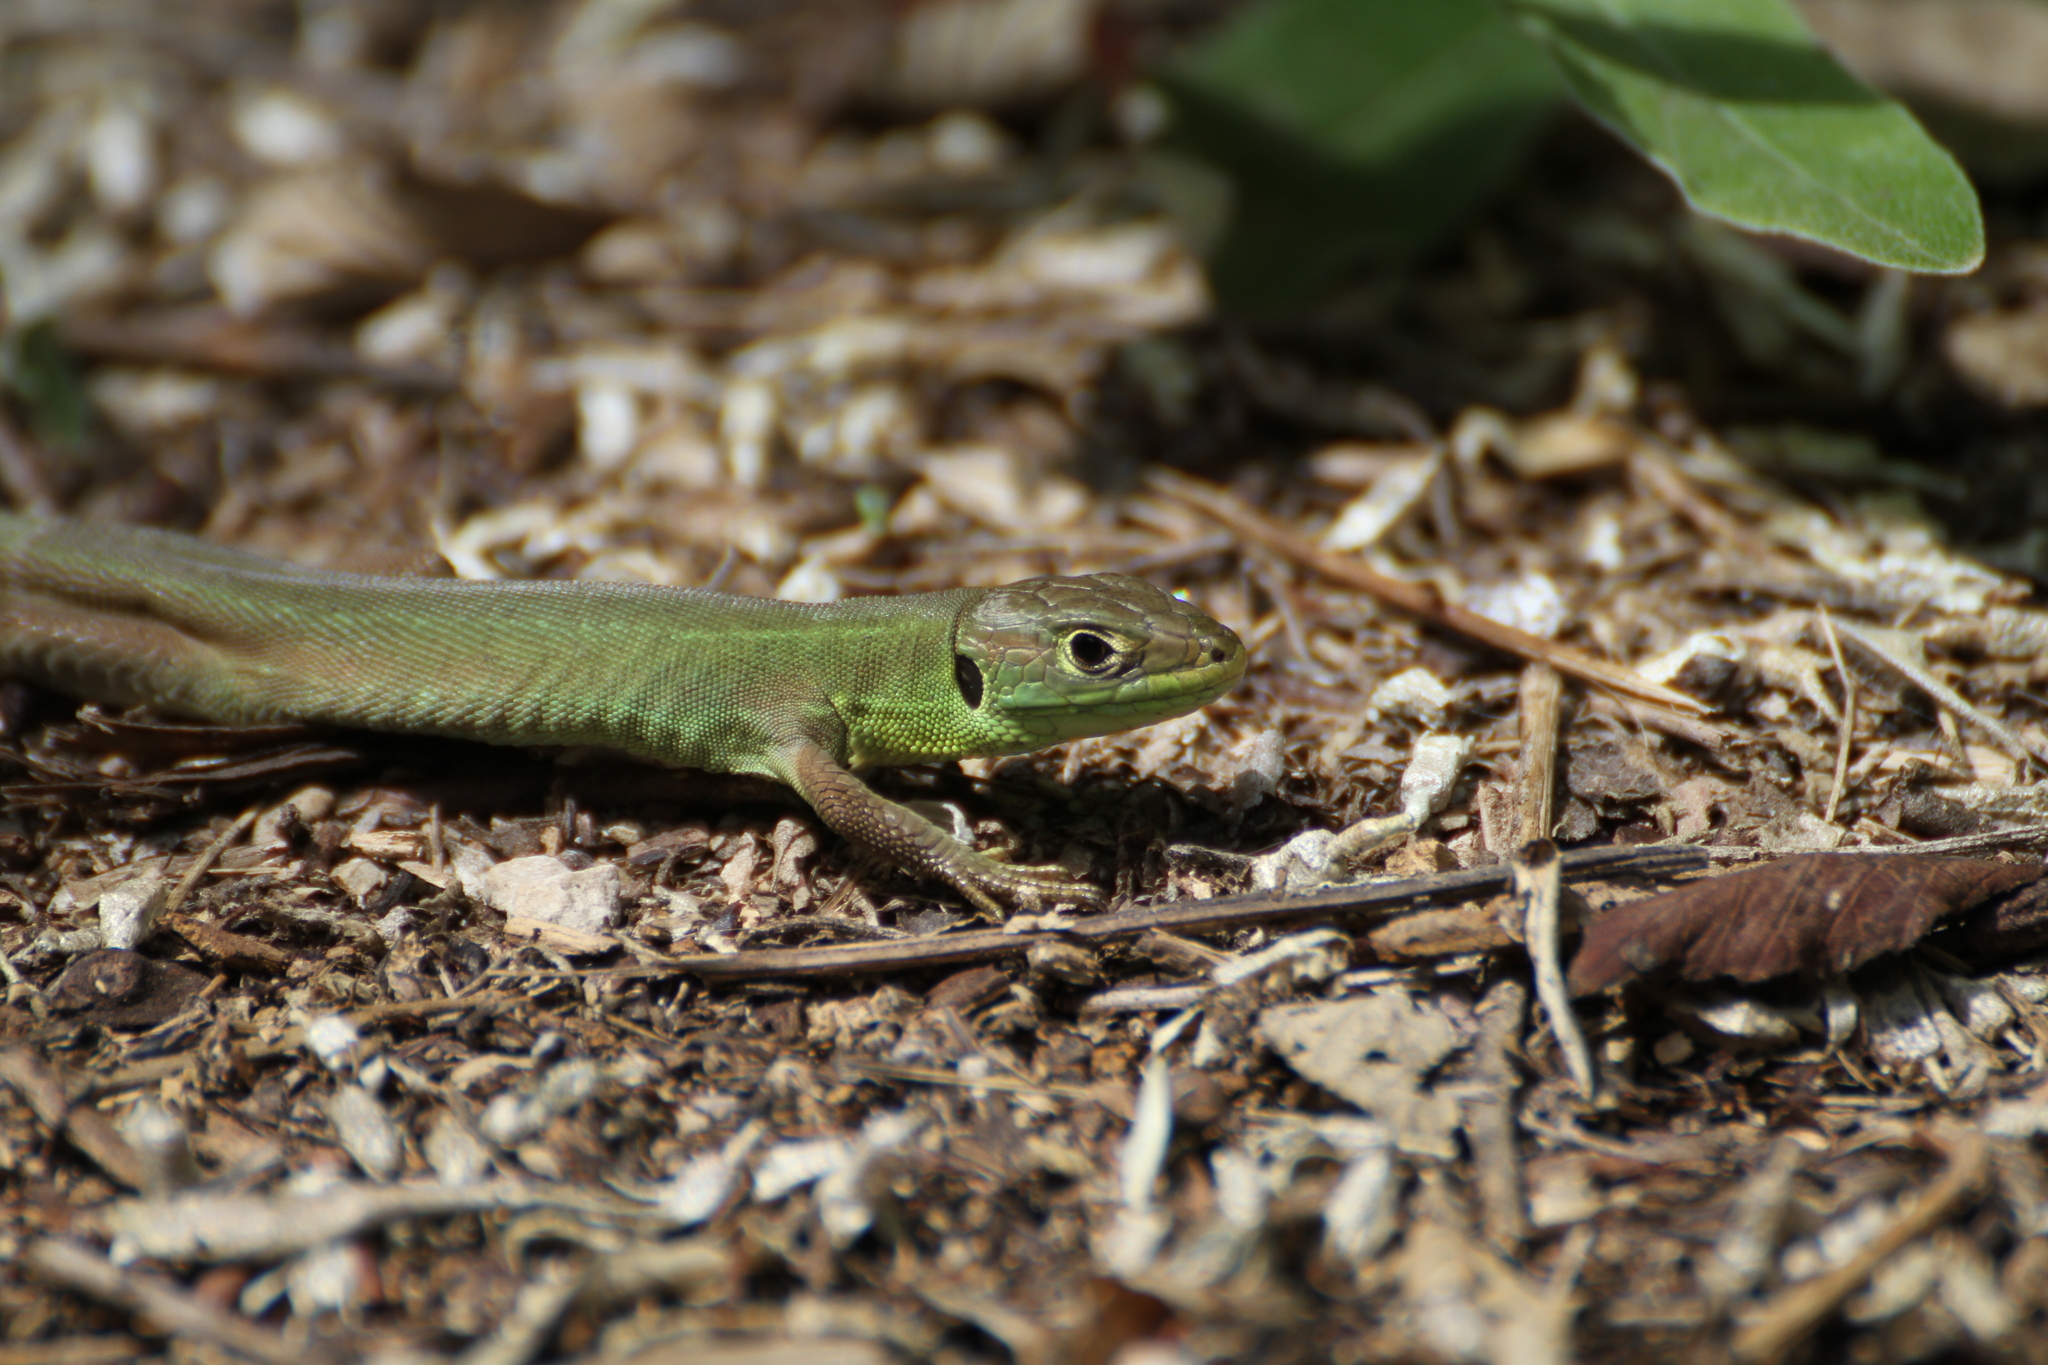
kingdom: Animalia
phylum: Chordata
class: Squamata
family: Lacertidae
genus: Lacerta
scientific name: Lacerta bilineata
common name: Western green lizard
